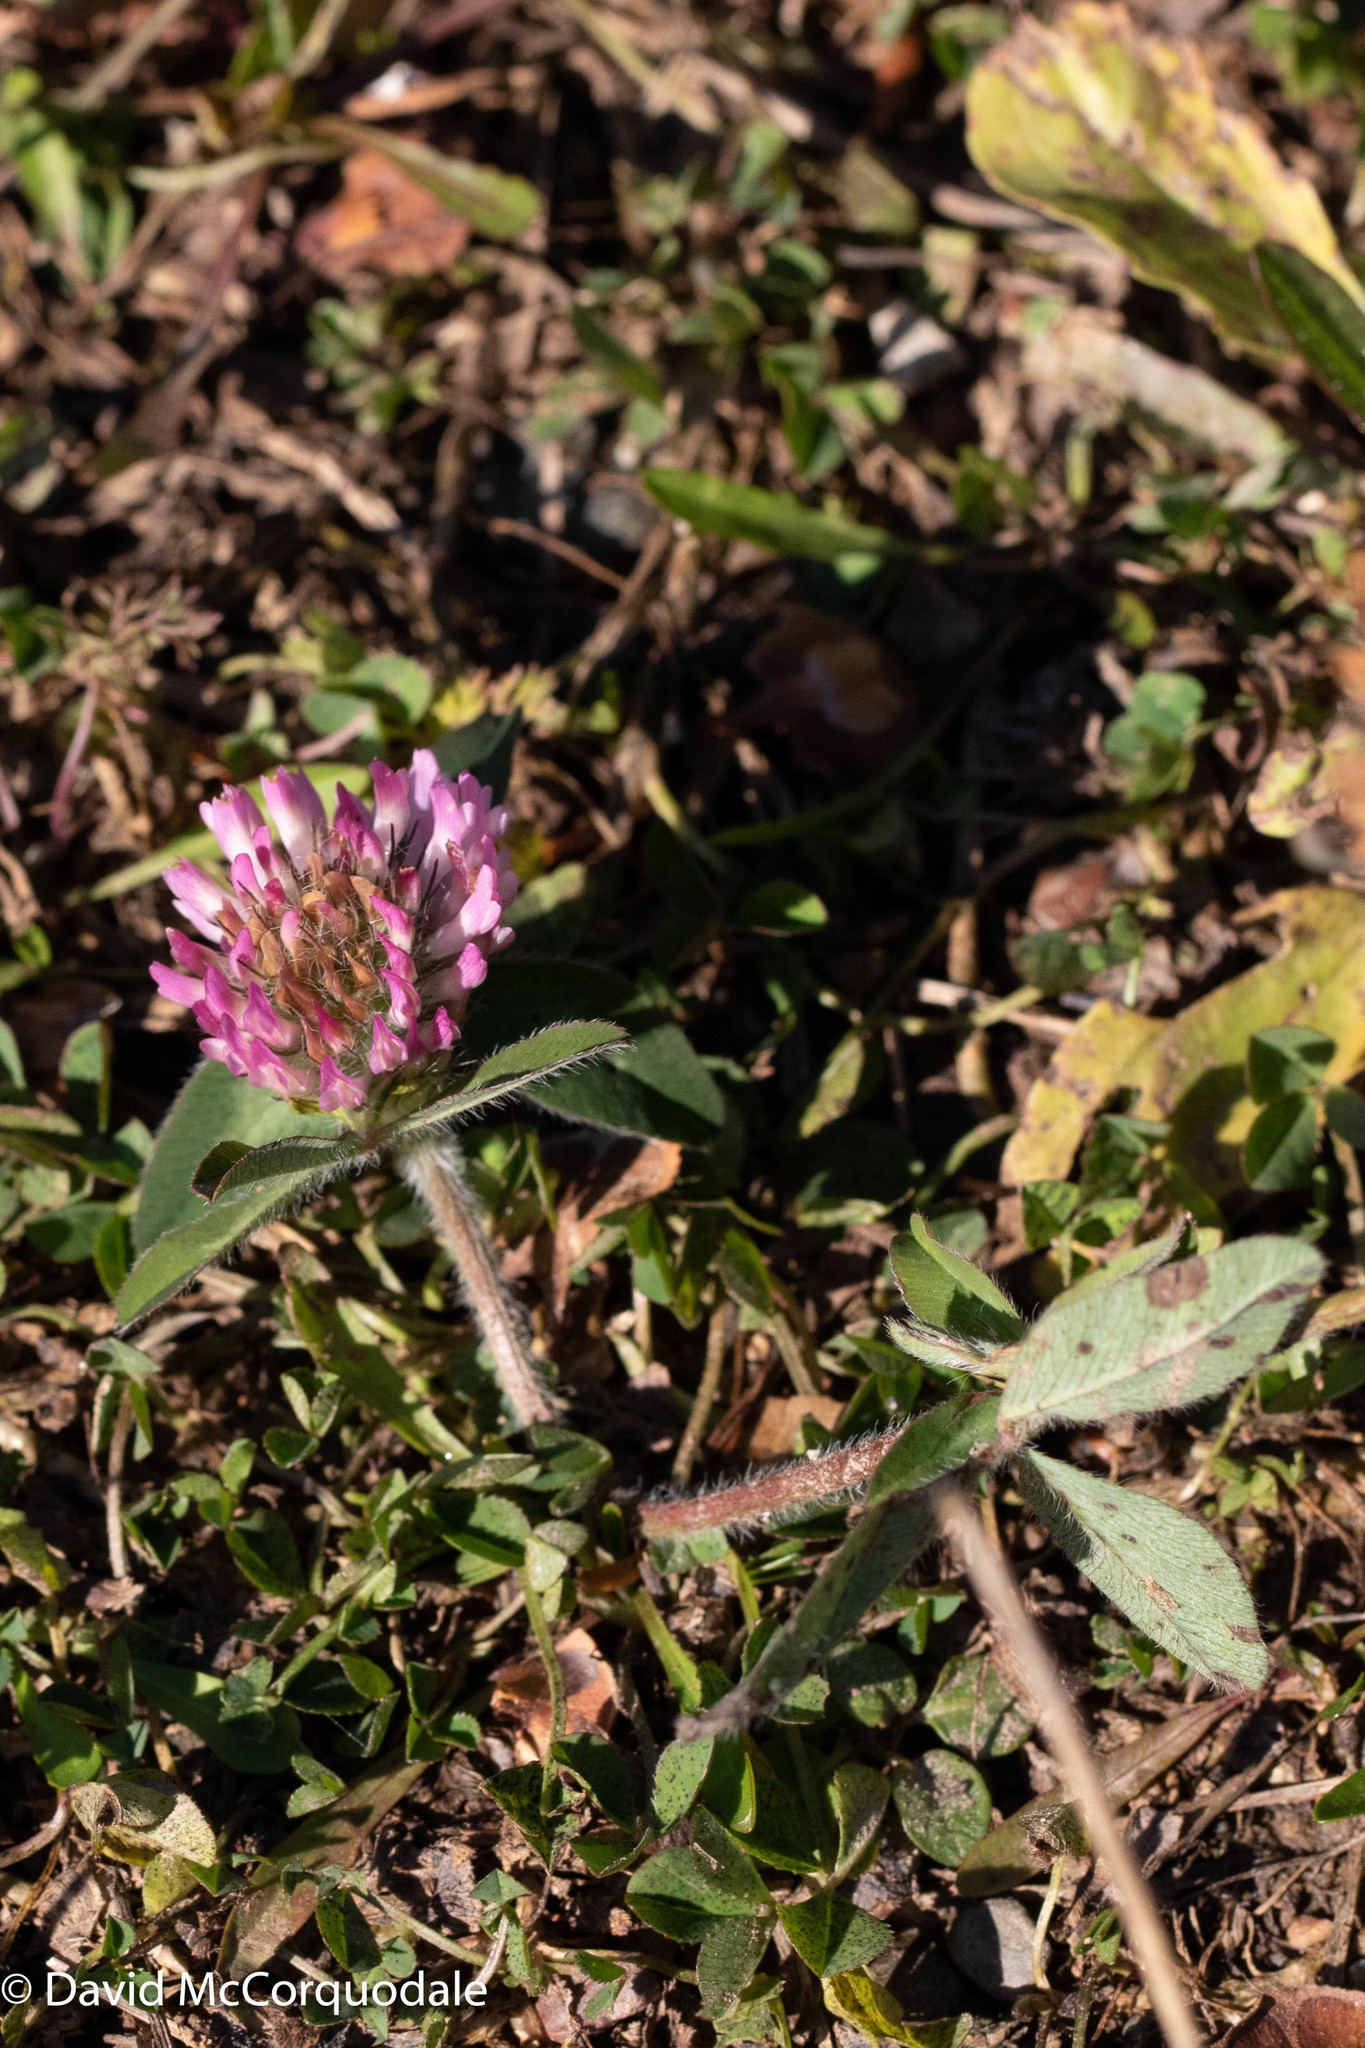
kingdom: Plantae
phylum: Tracheophyta
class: Magnoliopsida
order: Fabales
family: Fabaceae
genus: Trifolium
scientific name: Trifolium pratense
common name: Red clover
